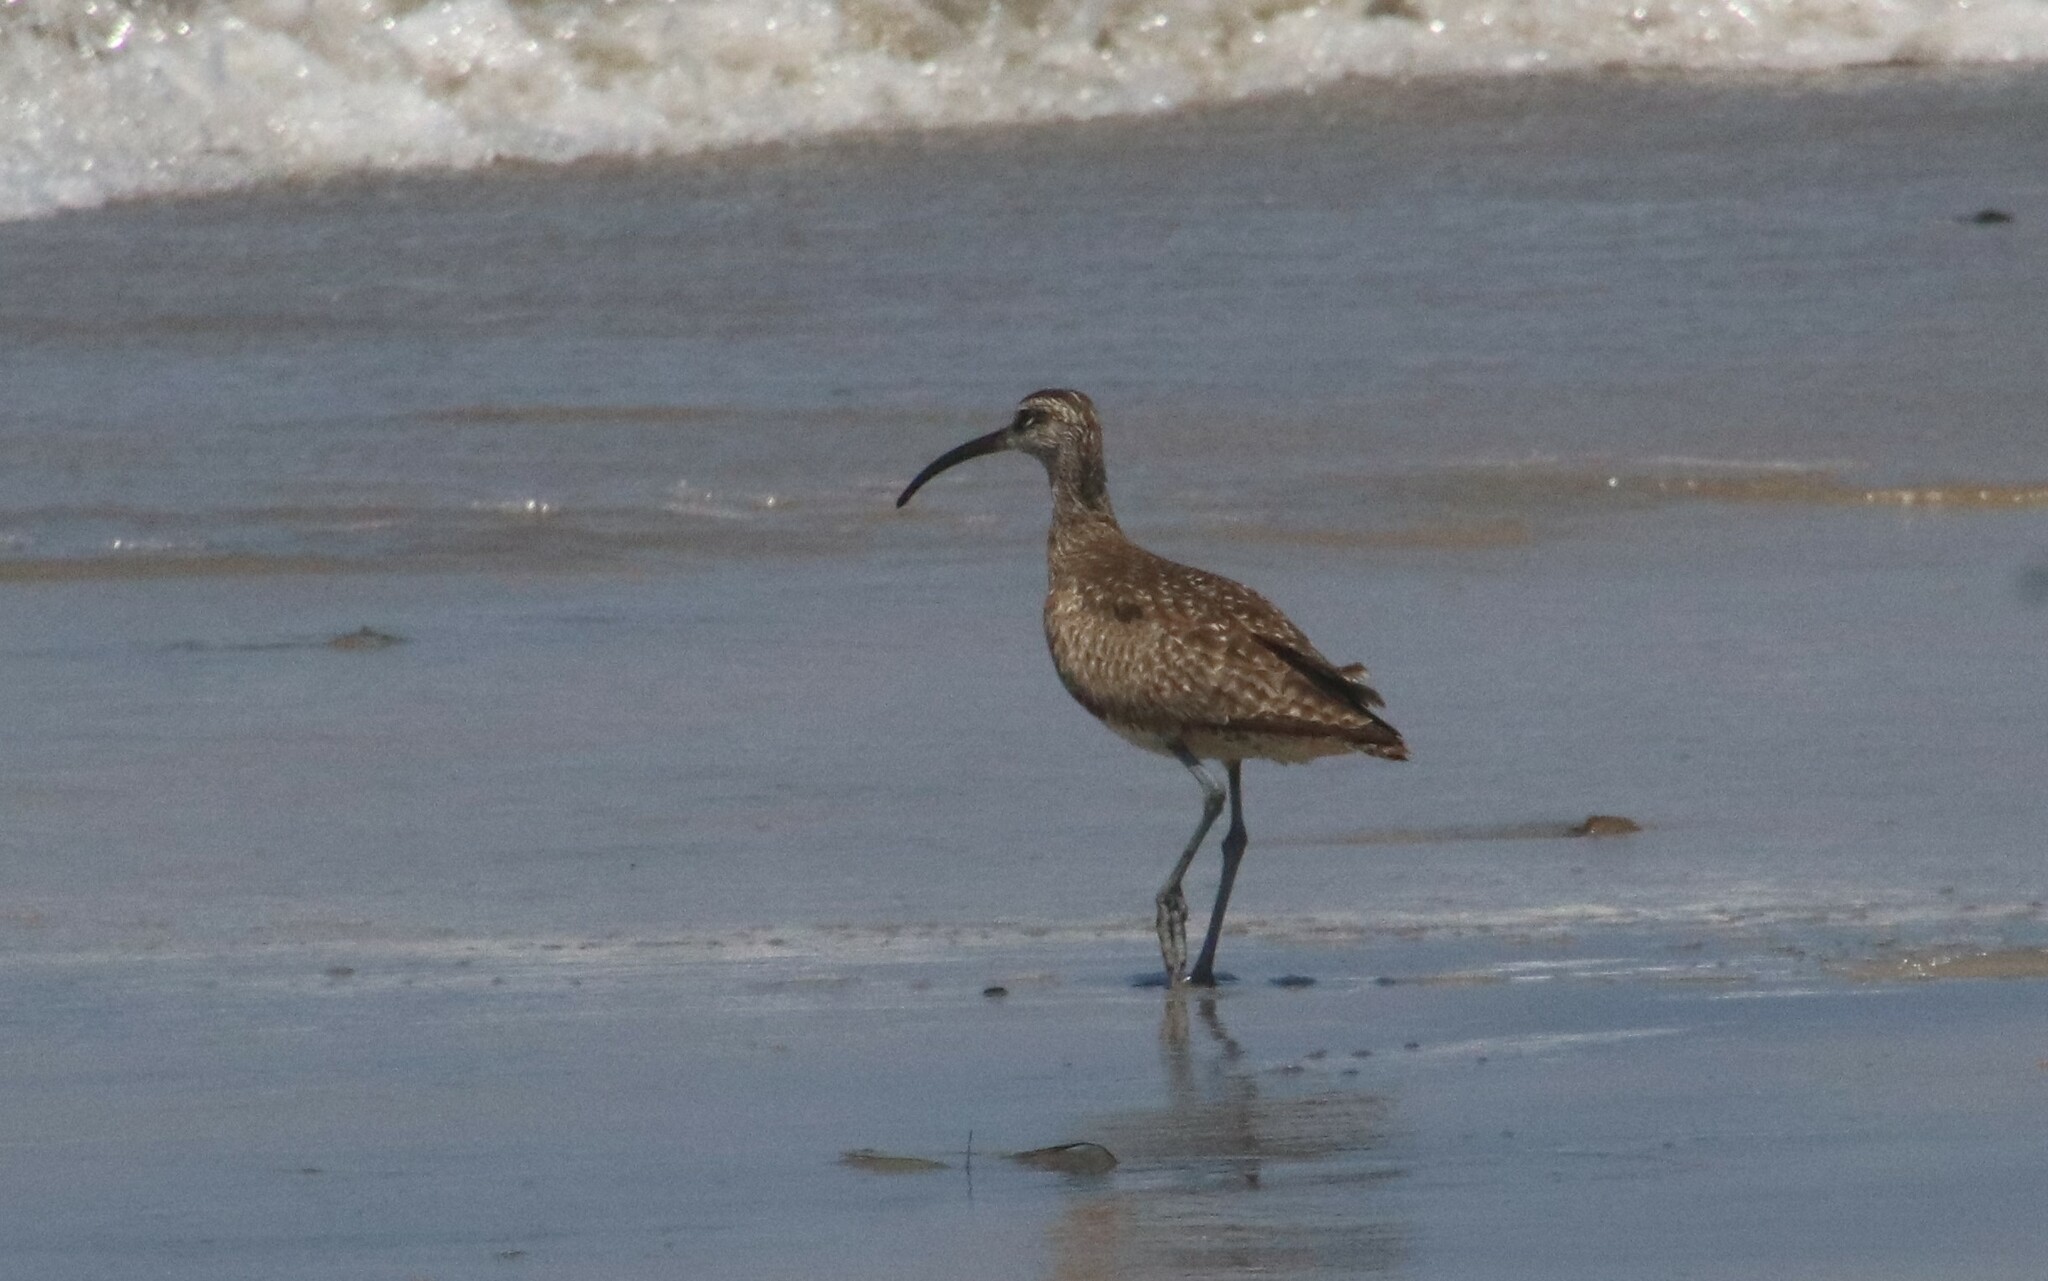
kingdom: Animalia
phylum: Chordata
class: Aves
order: Charadriiformes
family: Scolopacidae
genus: Numenius
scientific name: Numenius phaeopus
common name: Whimbrel
